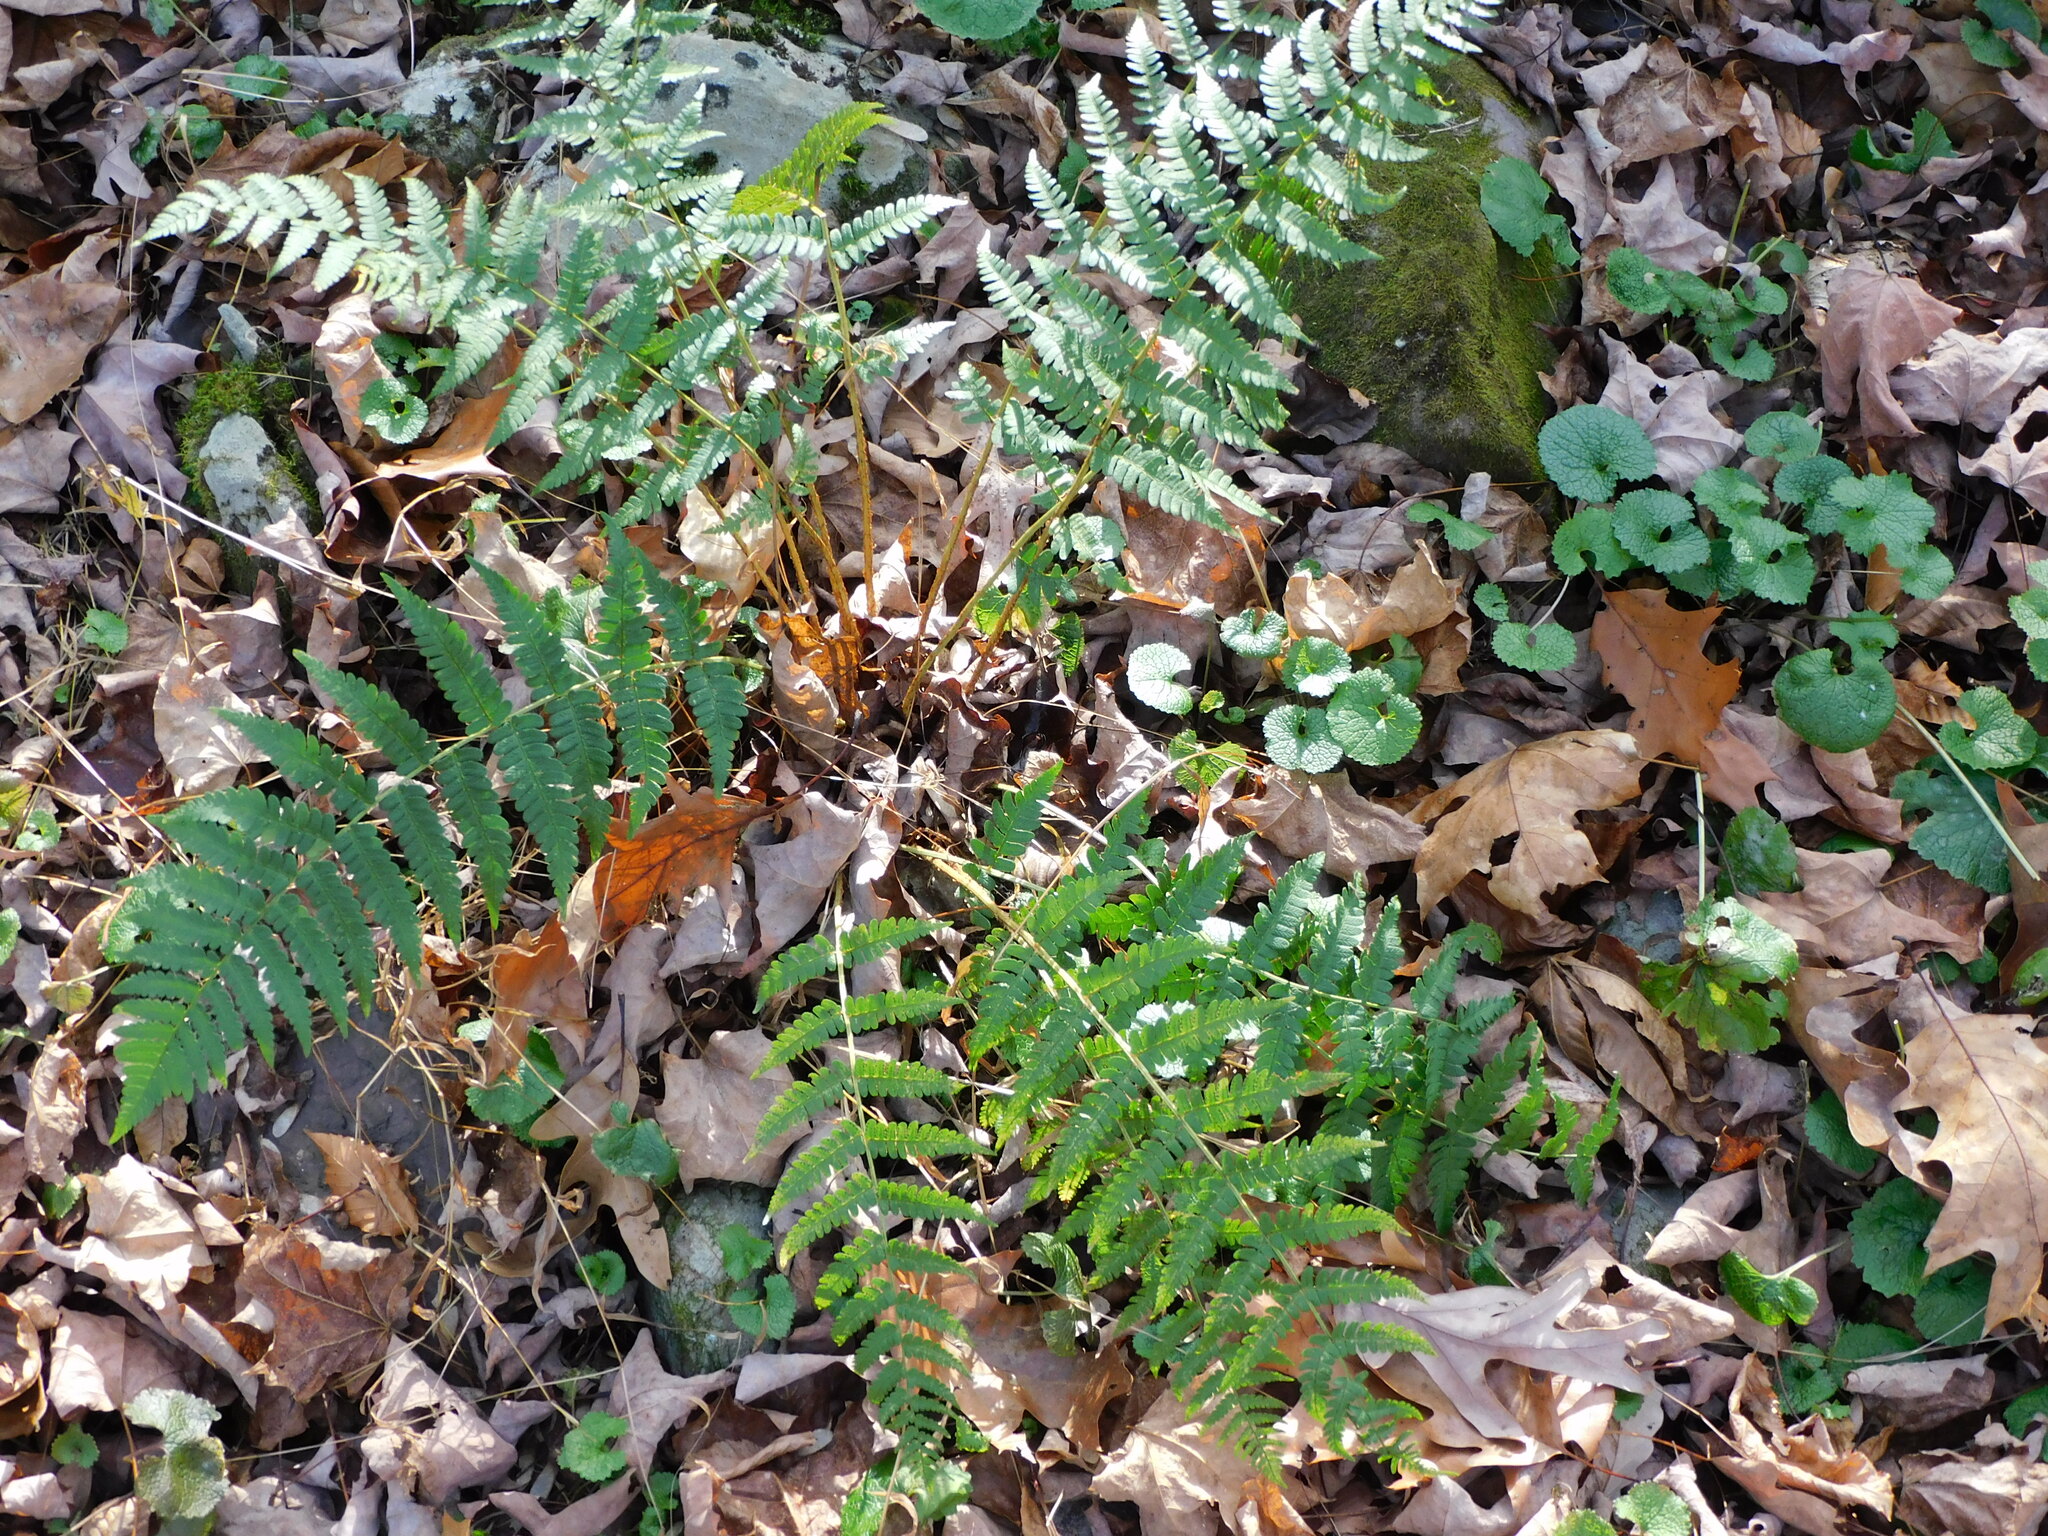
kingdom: Plantae
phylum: Tracheophyta
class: Polypodiopsida
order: Polypodiales
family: Dryopteridaceae
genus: Dryopteris
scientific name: Dryopteris marginalis
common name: Marginal wood fern
